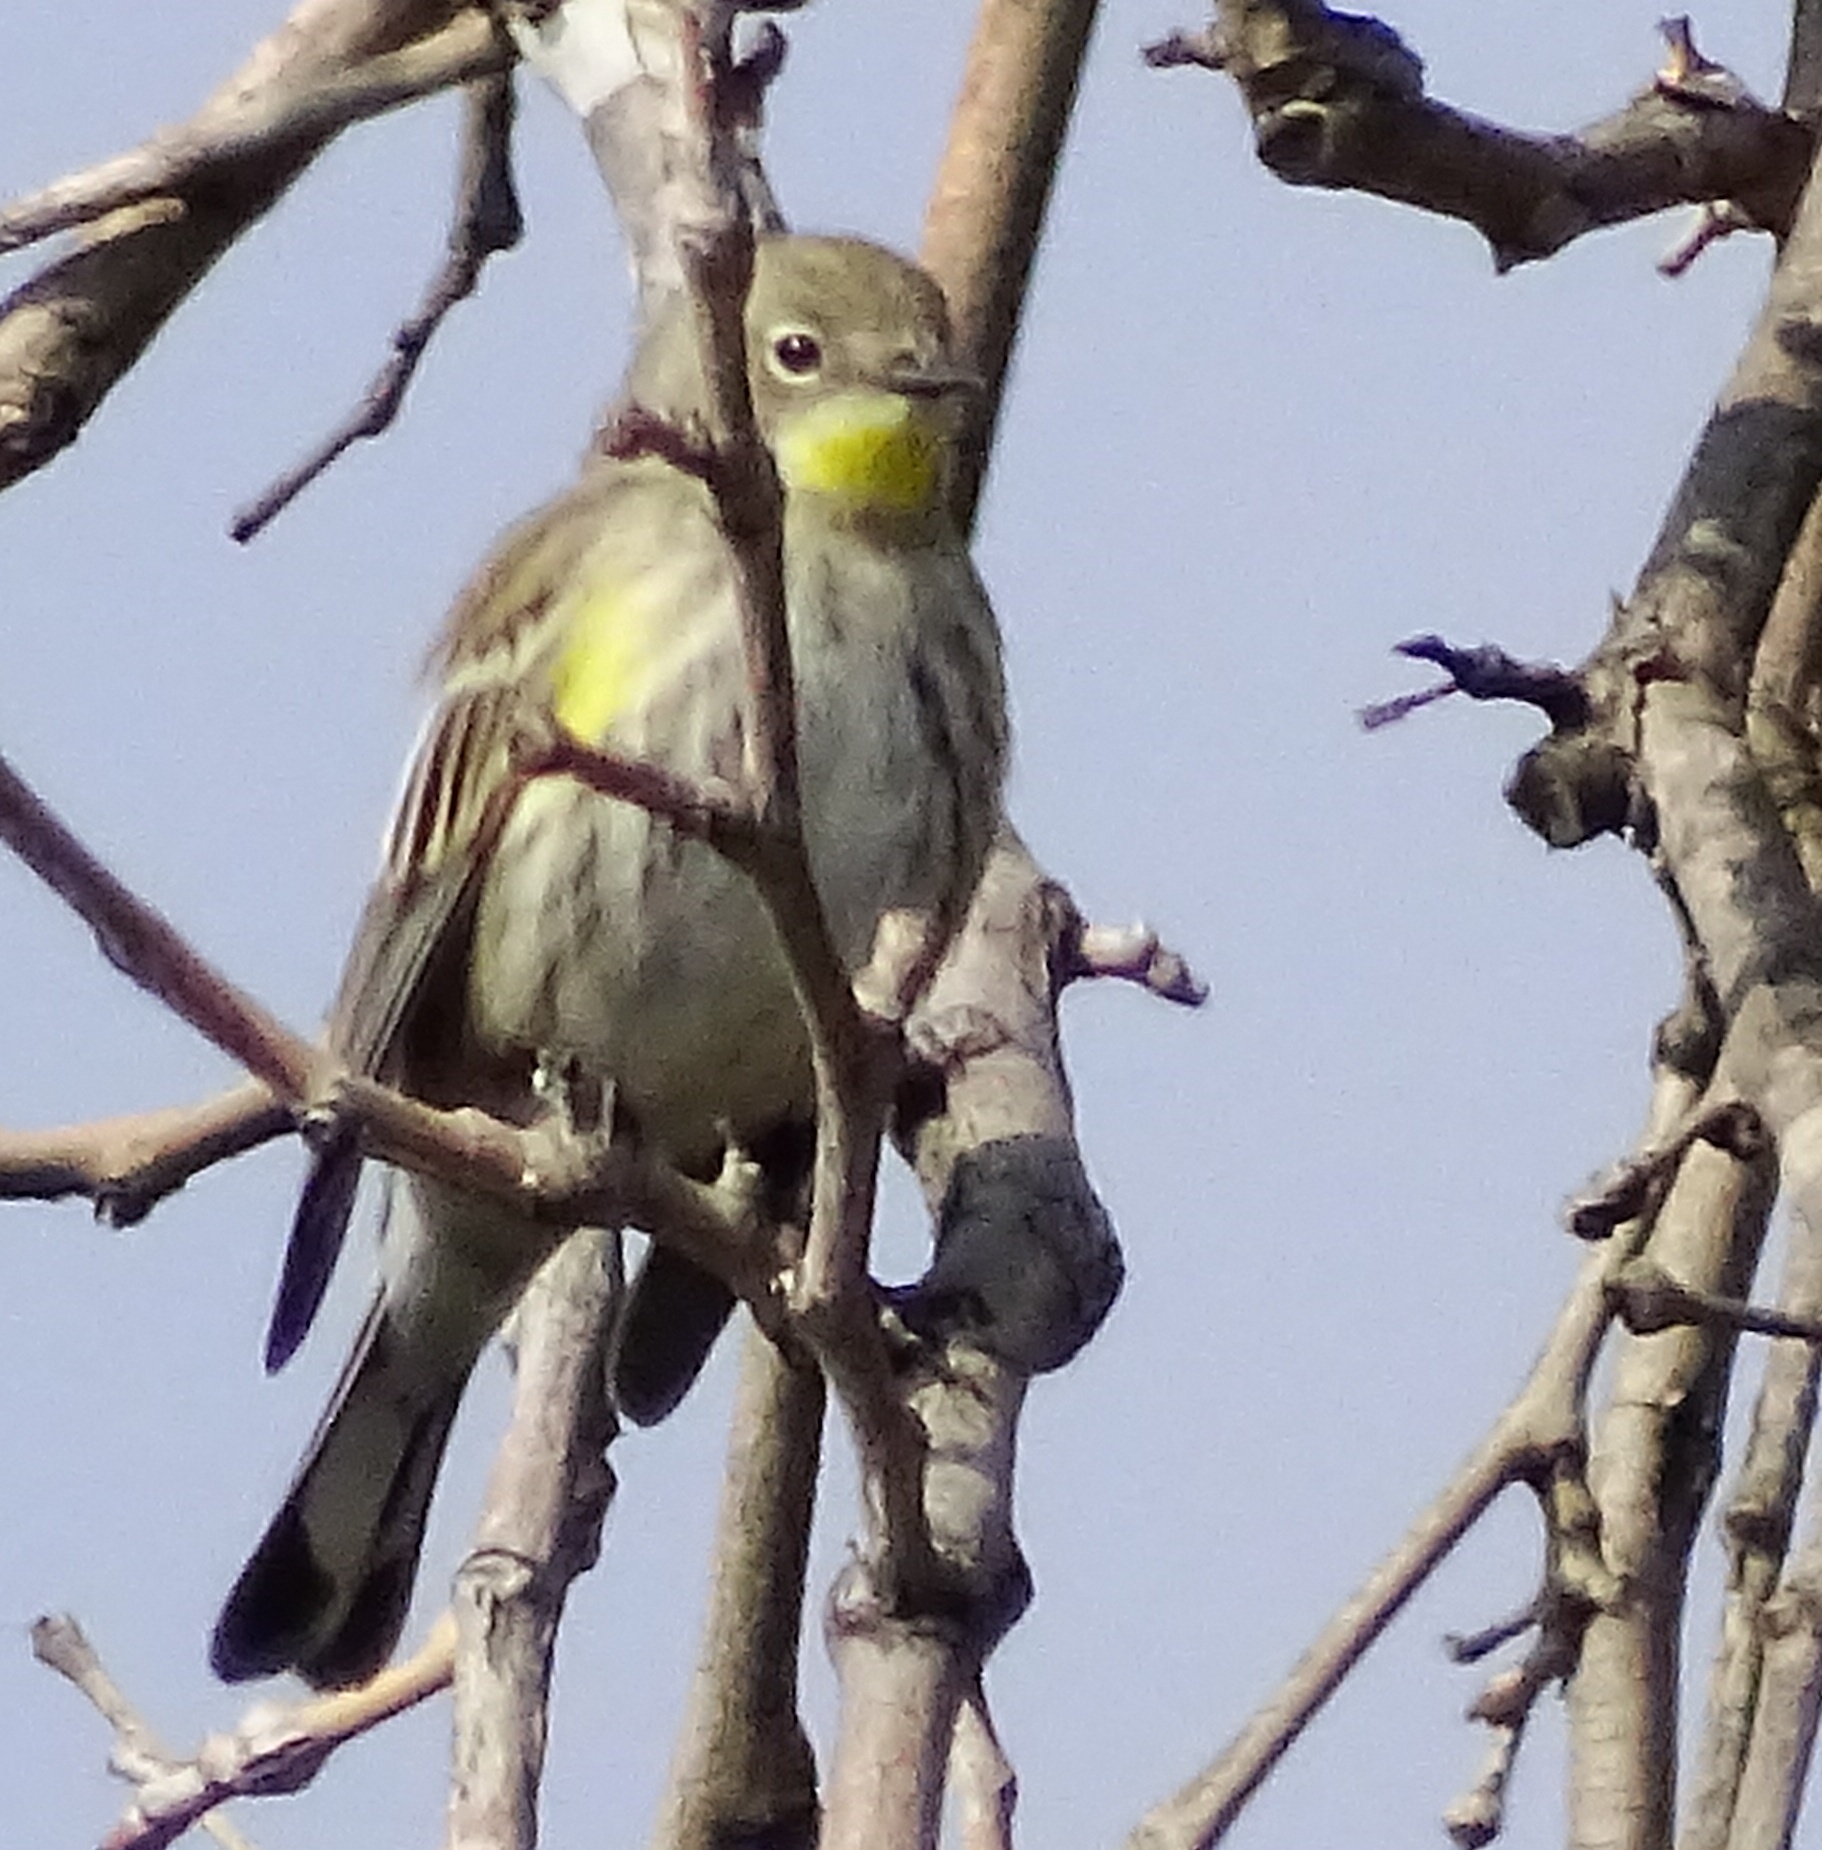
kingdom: Animalia
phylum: Chordata
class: Aves
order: Passeriformes
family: Parulidae
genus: Setophaga
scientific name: Setophaga coronata
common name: Myrtle warbler
